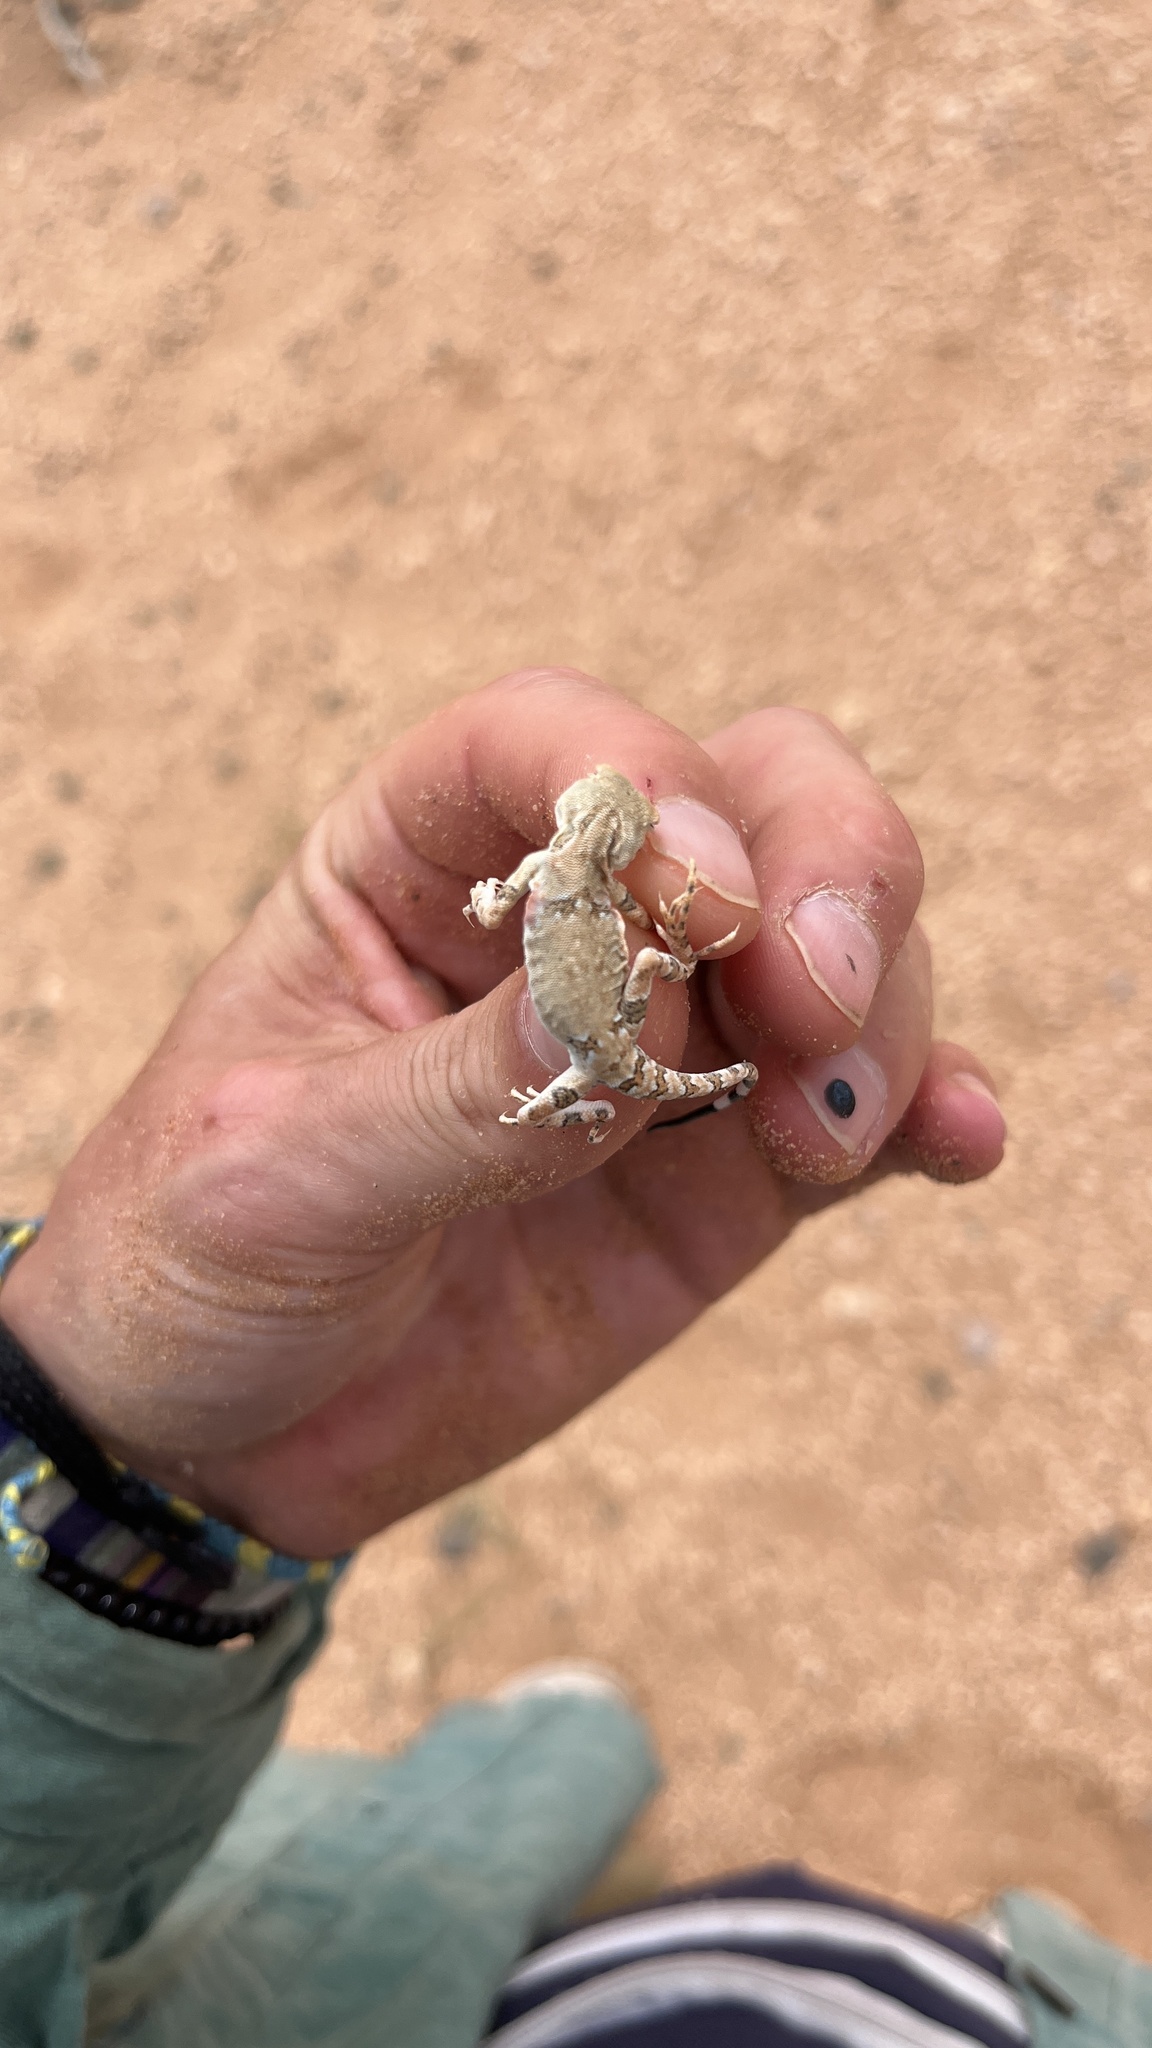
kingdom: Animalia
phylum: Chordata
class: Squamata
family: Agamidae
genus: Phrynocephalus
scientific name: Phrynocephalus versicolor
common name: Tuvan toad-headed agama
